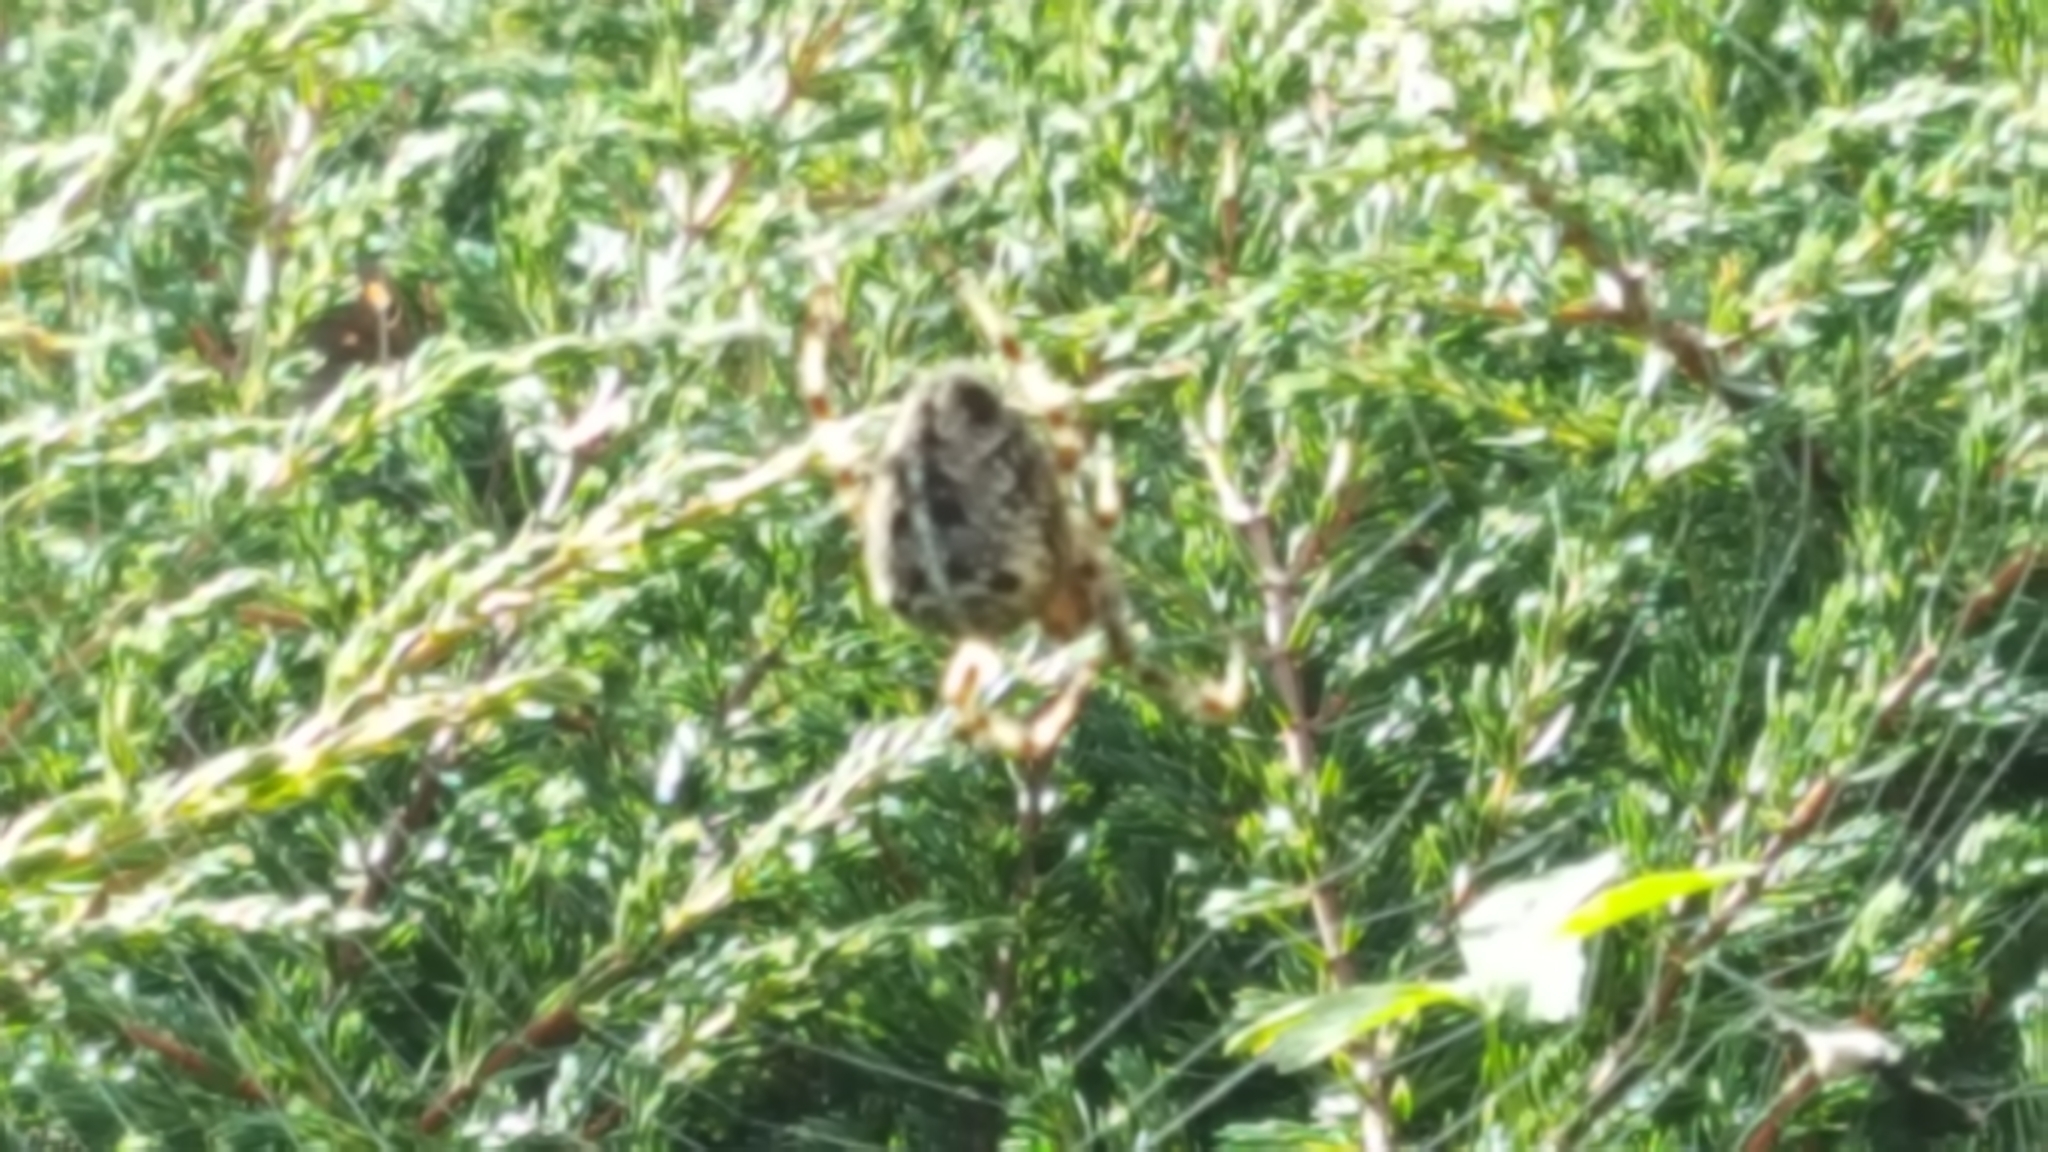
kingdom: Animalia
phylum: Arthropoda
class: Arachnida
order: Araneae
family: Araneidae
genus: Araneus
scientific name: Araneus diadematus
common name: Cross orbweaver
